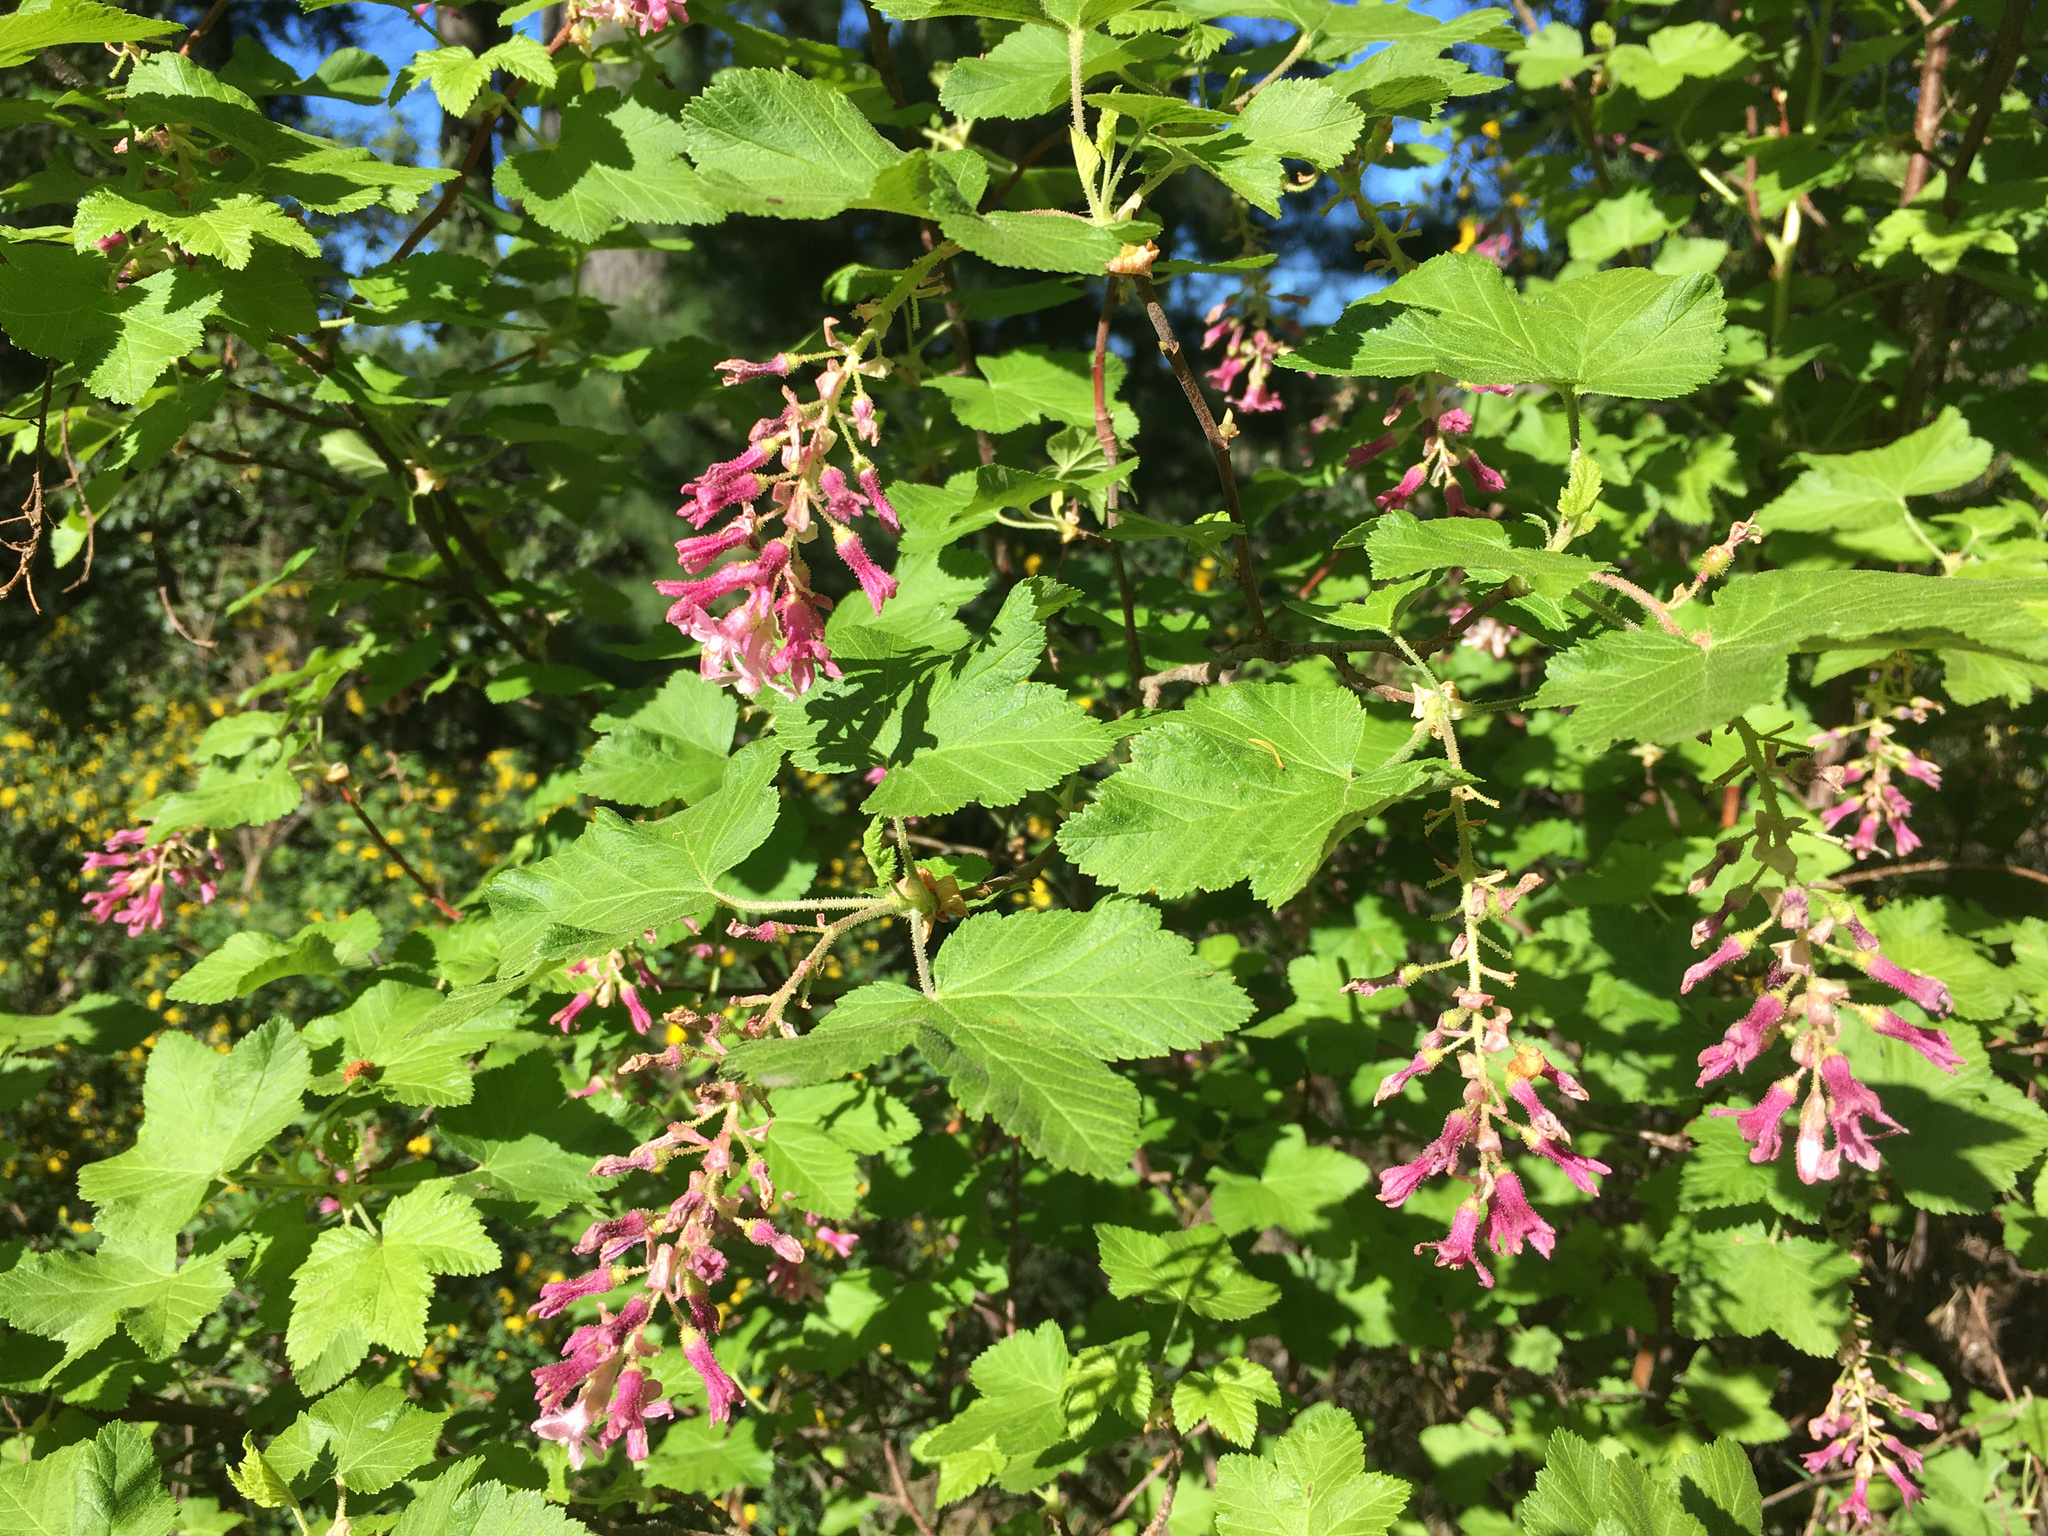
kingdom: Plantae
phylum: Tracheophyta
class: Magnoliopsida
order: Saxifragales
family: Grossulariaceae
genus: Ribes
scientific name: Ribes sanguineum
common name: Flowering currant
